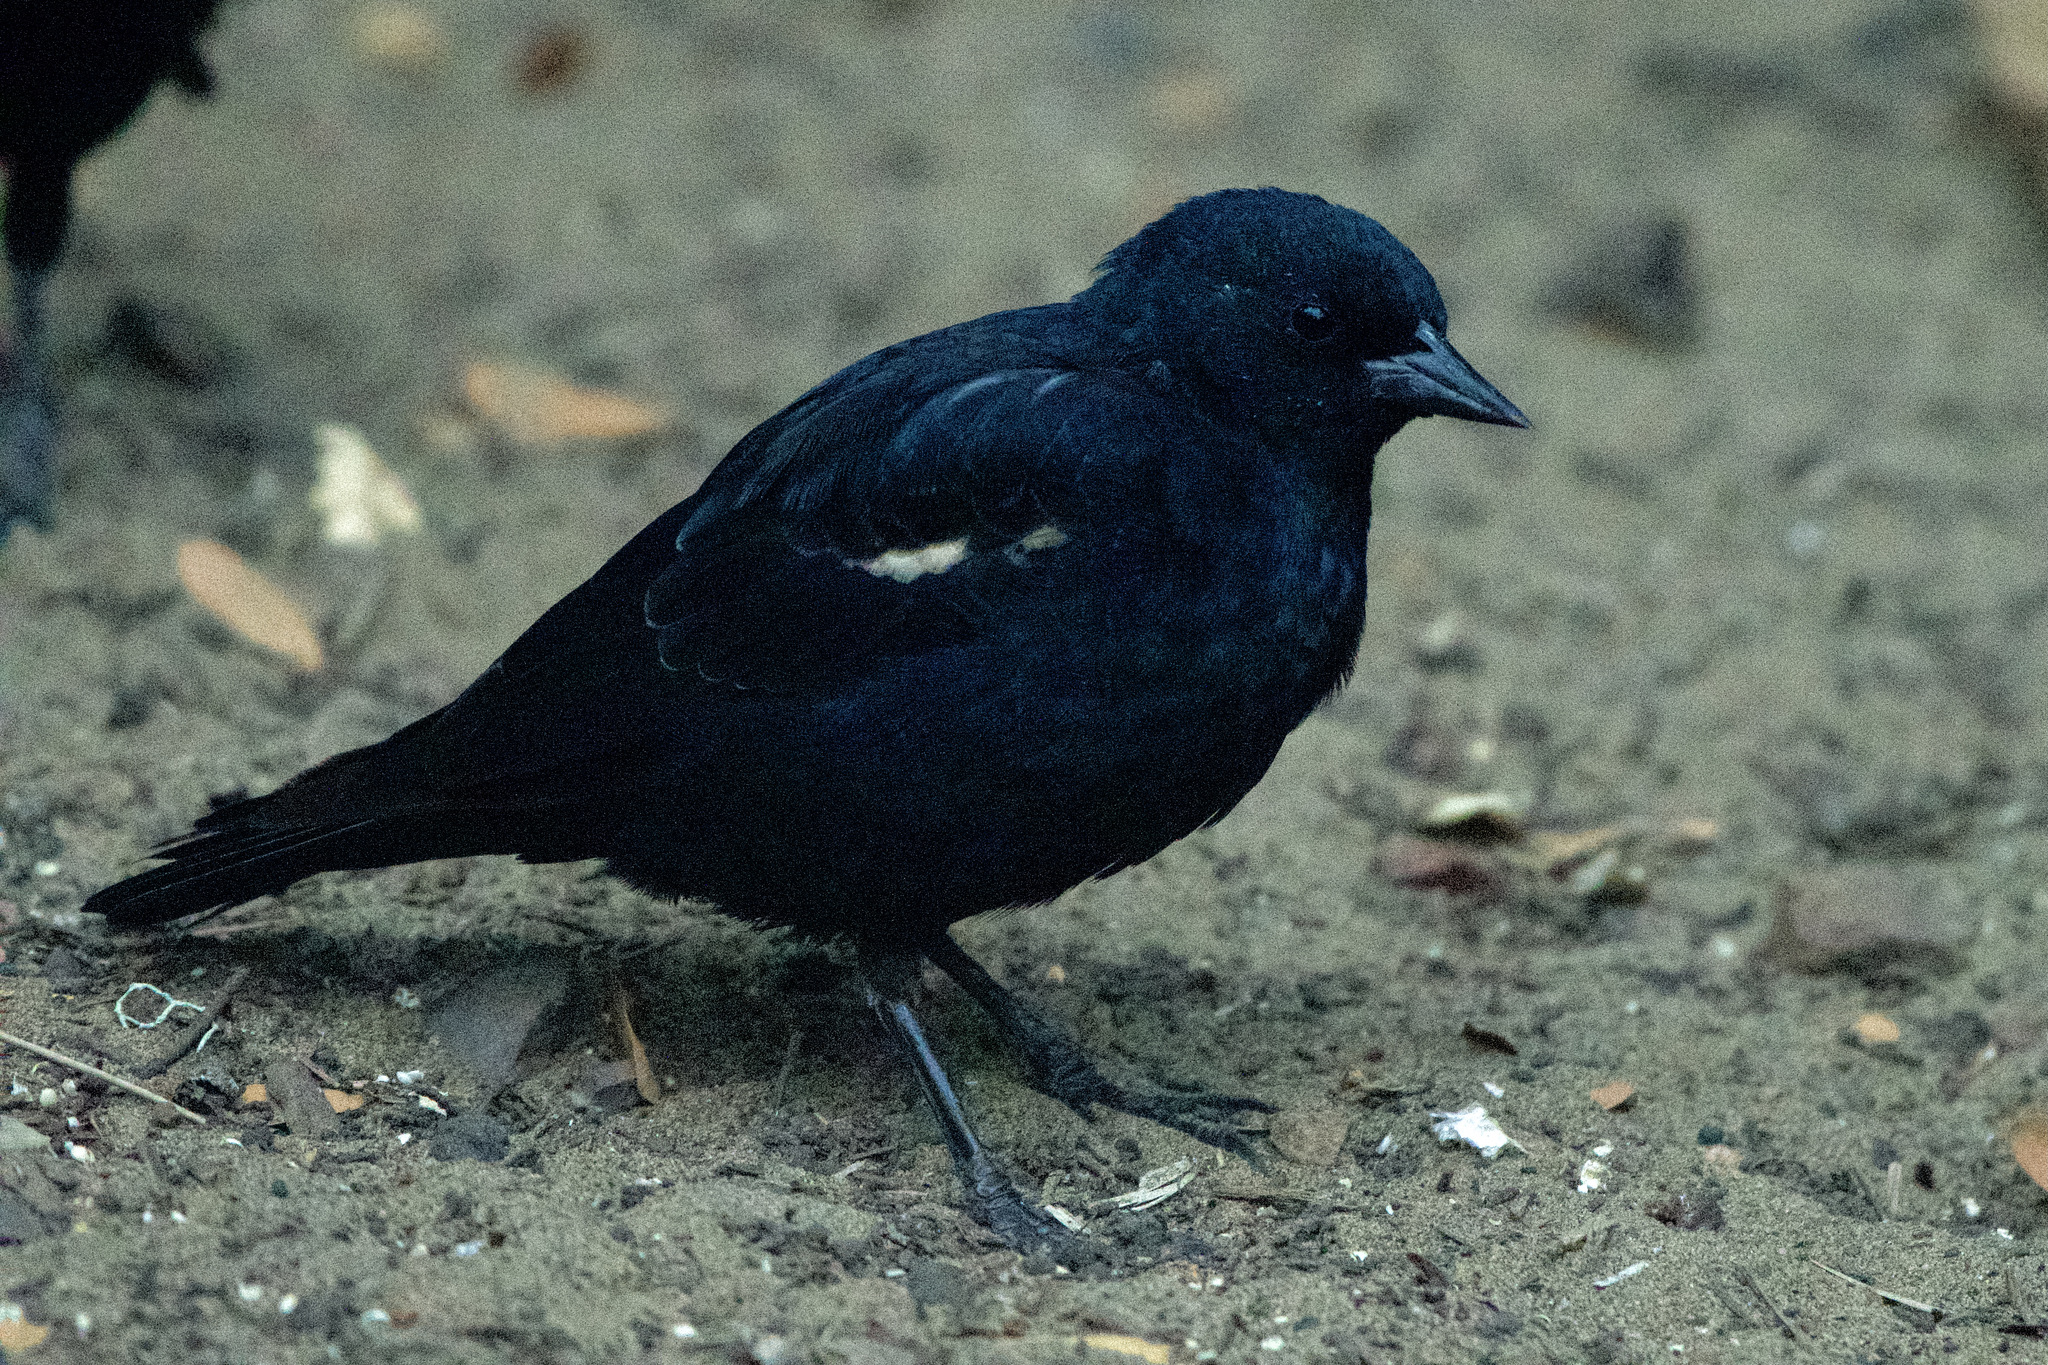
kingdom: Animalia
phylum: Chordata
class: Aves
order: Passeriformes
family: Icteridae
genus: Agelaius
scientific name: Agelaius tricolor
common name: Tricolored blackbird
